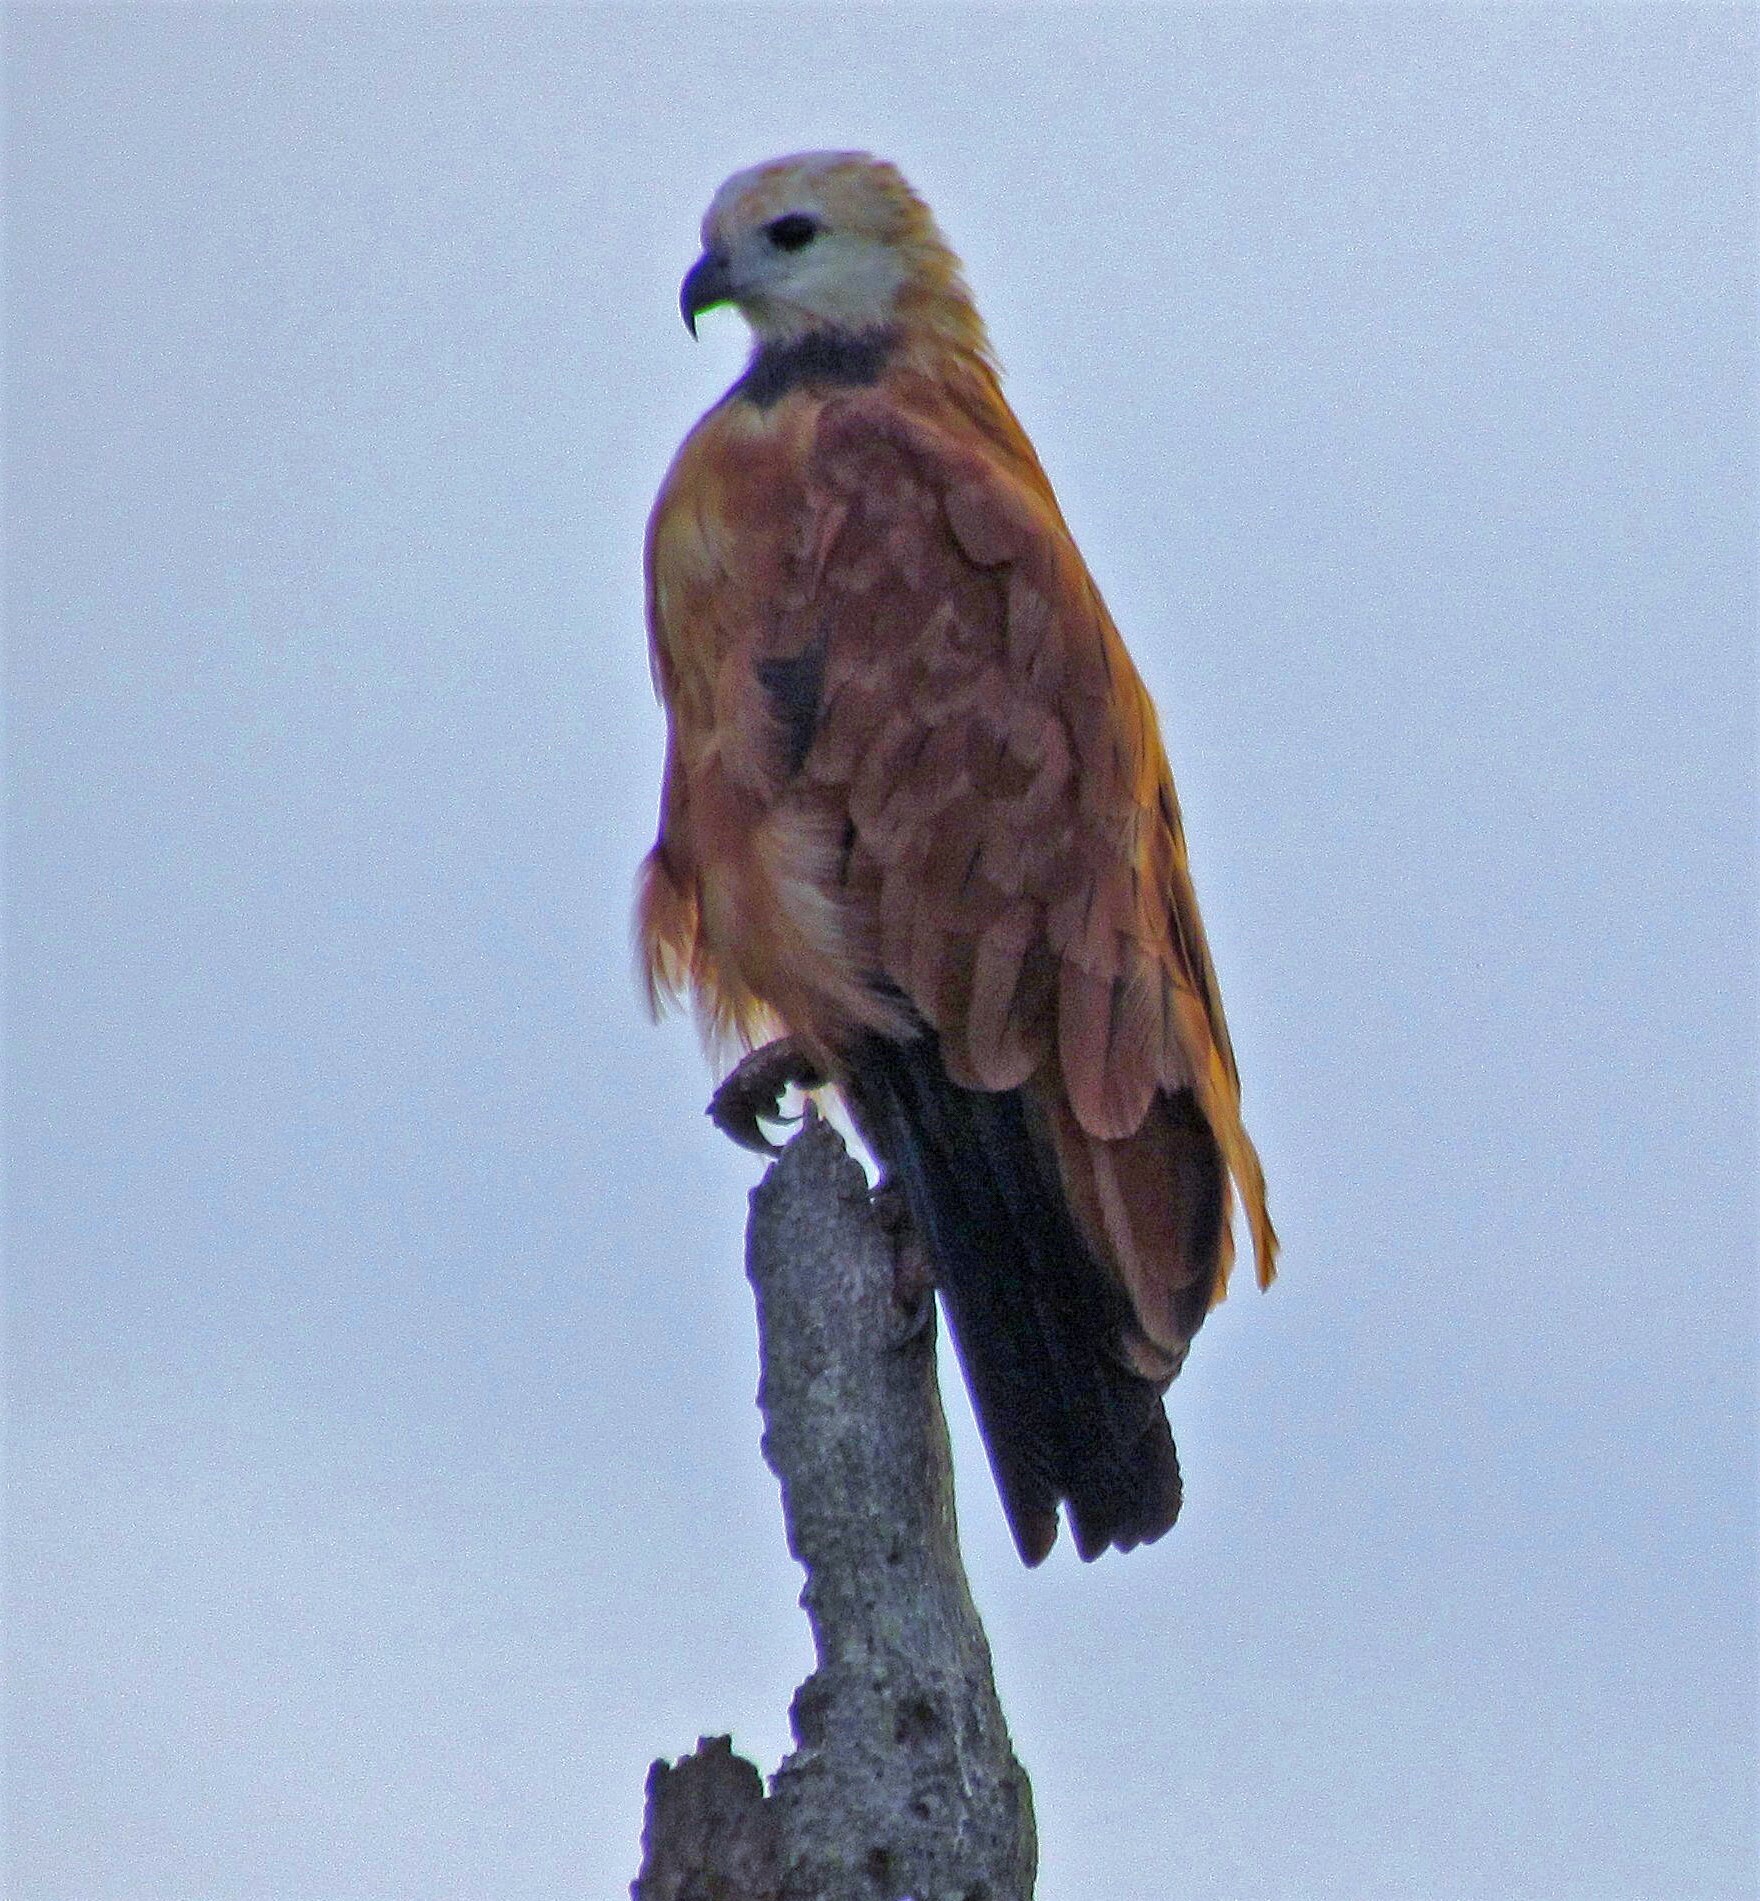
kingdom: Animalia
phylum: Chordata
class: Aves
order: Accipitriformes
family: Accipitridae
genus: Busarellus
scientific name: Busarellus nigricollis
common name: Black-collared hawk
